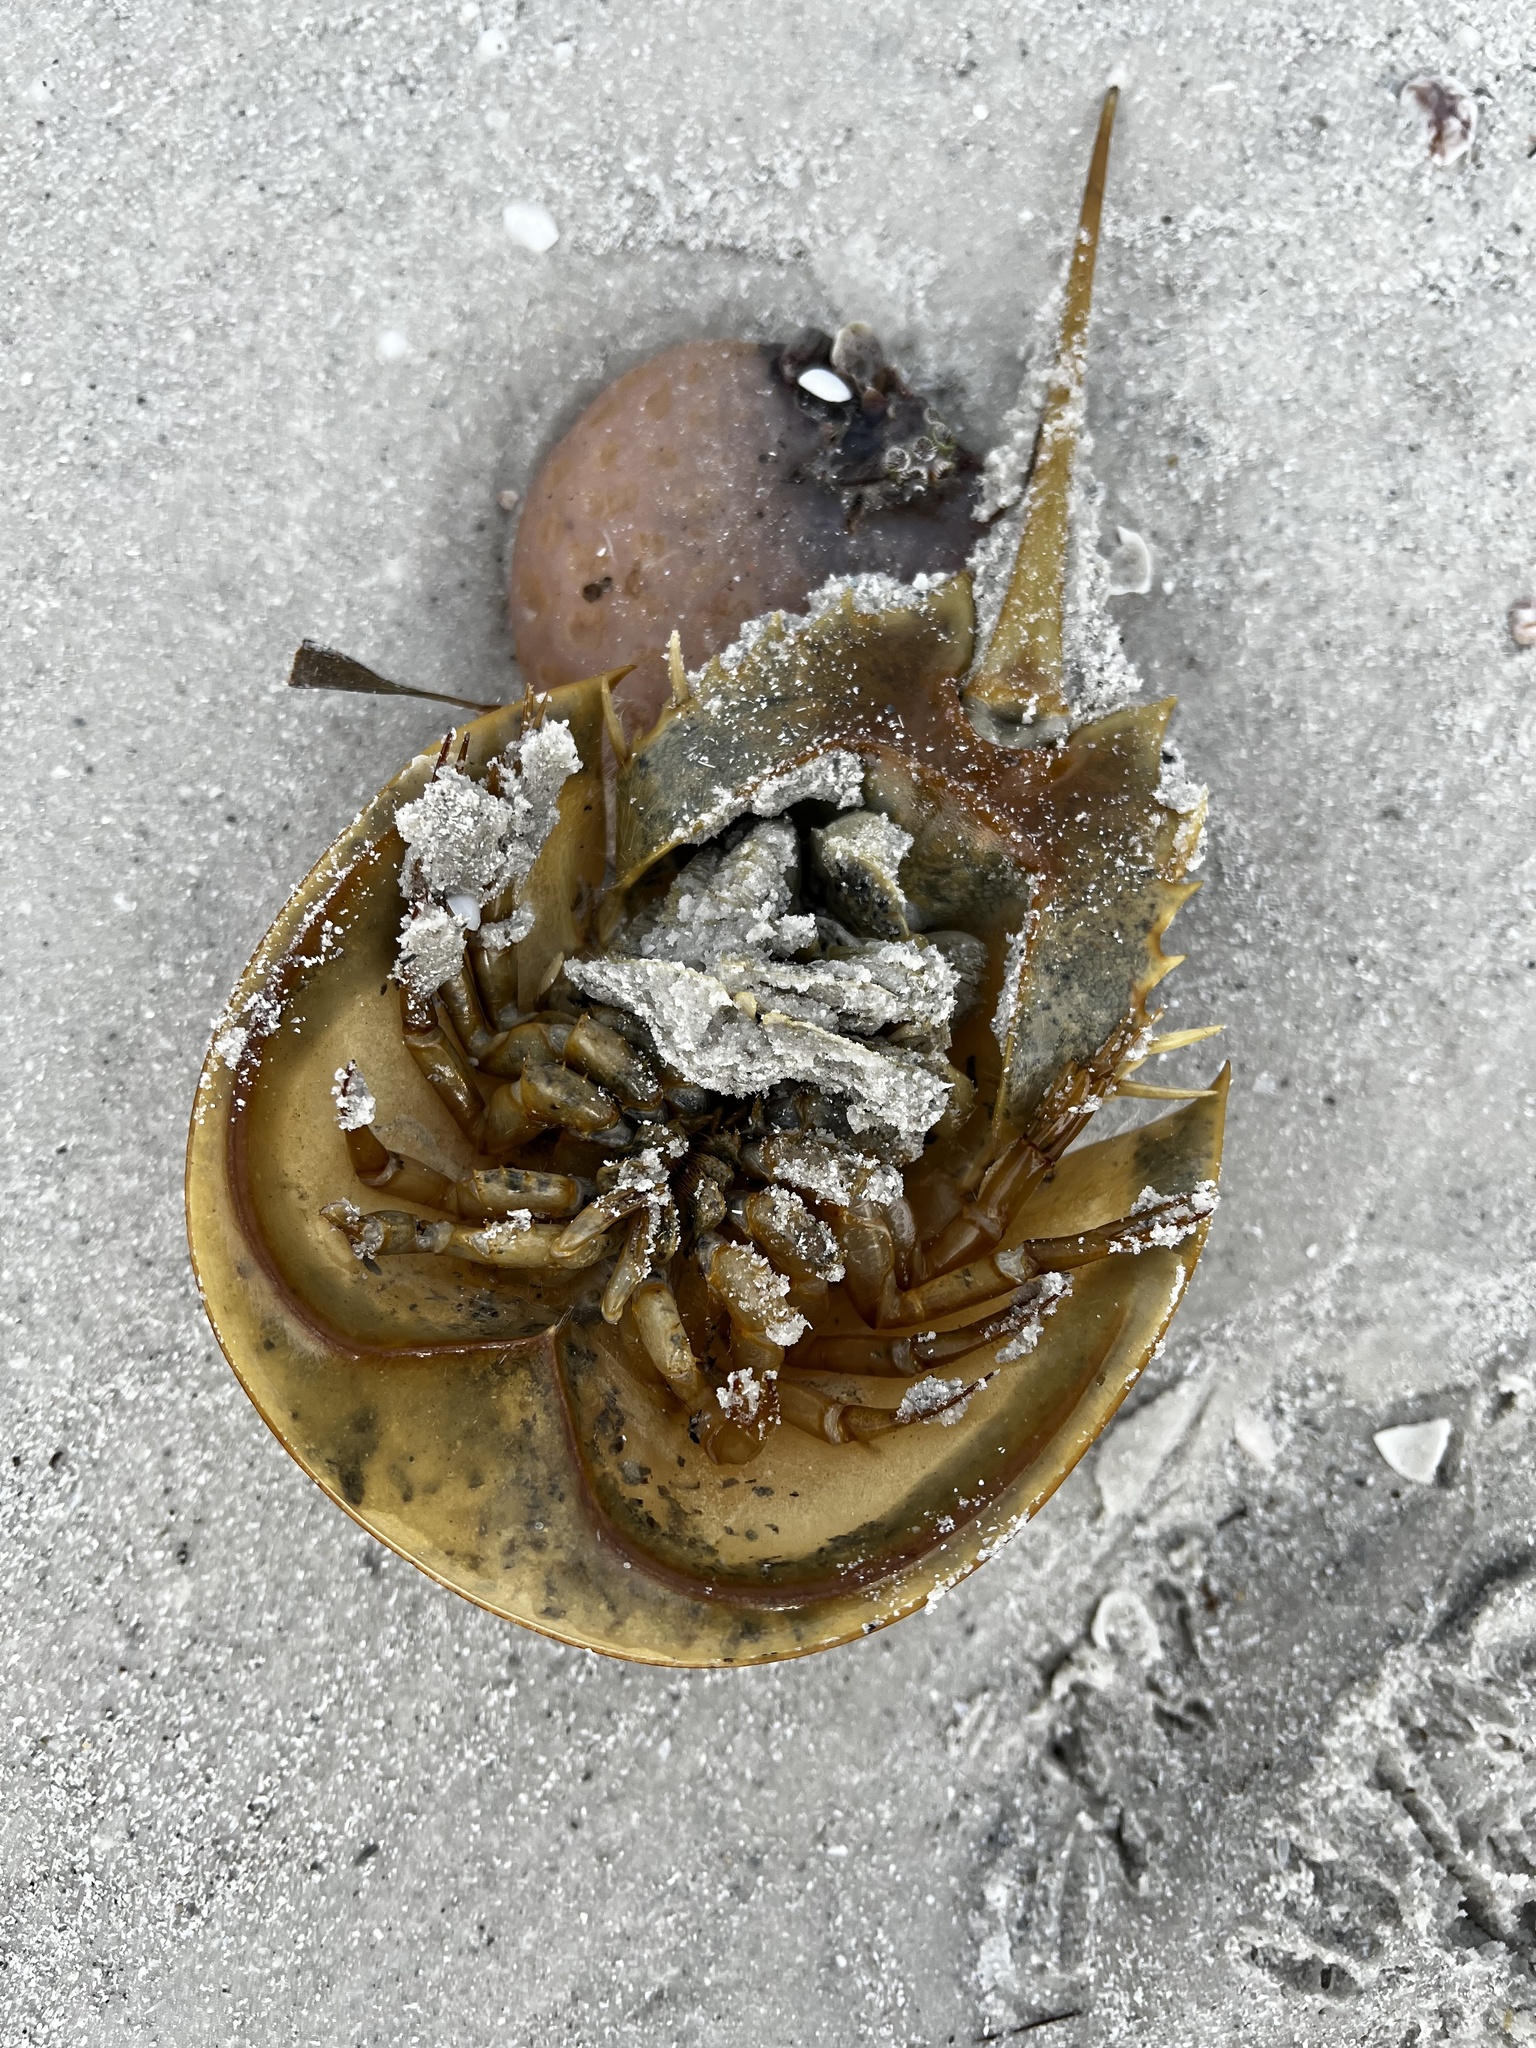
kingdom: Animalia
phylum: Arthropoda
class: Merostomata
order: Xiphosurida
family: Limulidae
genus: Limulus
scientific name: Limulus polyphemus
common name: Horseshoe crab
